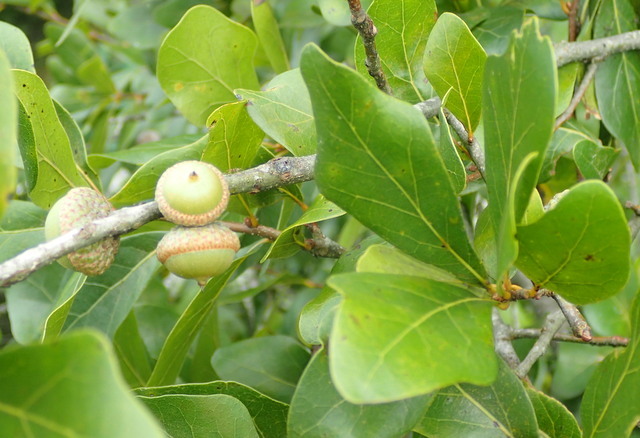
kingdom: Plantae
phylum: Tracheophyta
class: Magnoliopsida
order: Fagales
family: Fagaceae
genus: Quercus
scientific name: Quercus myrtifolia
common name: Myrtle oak
